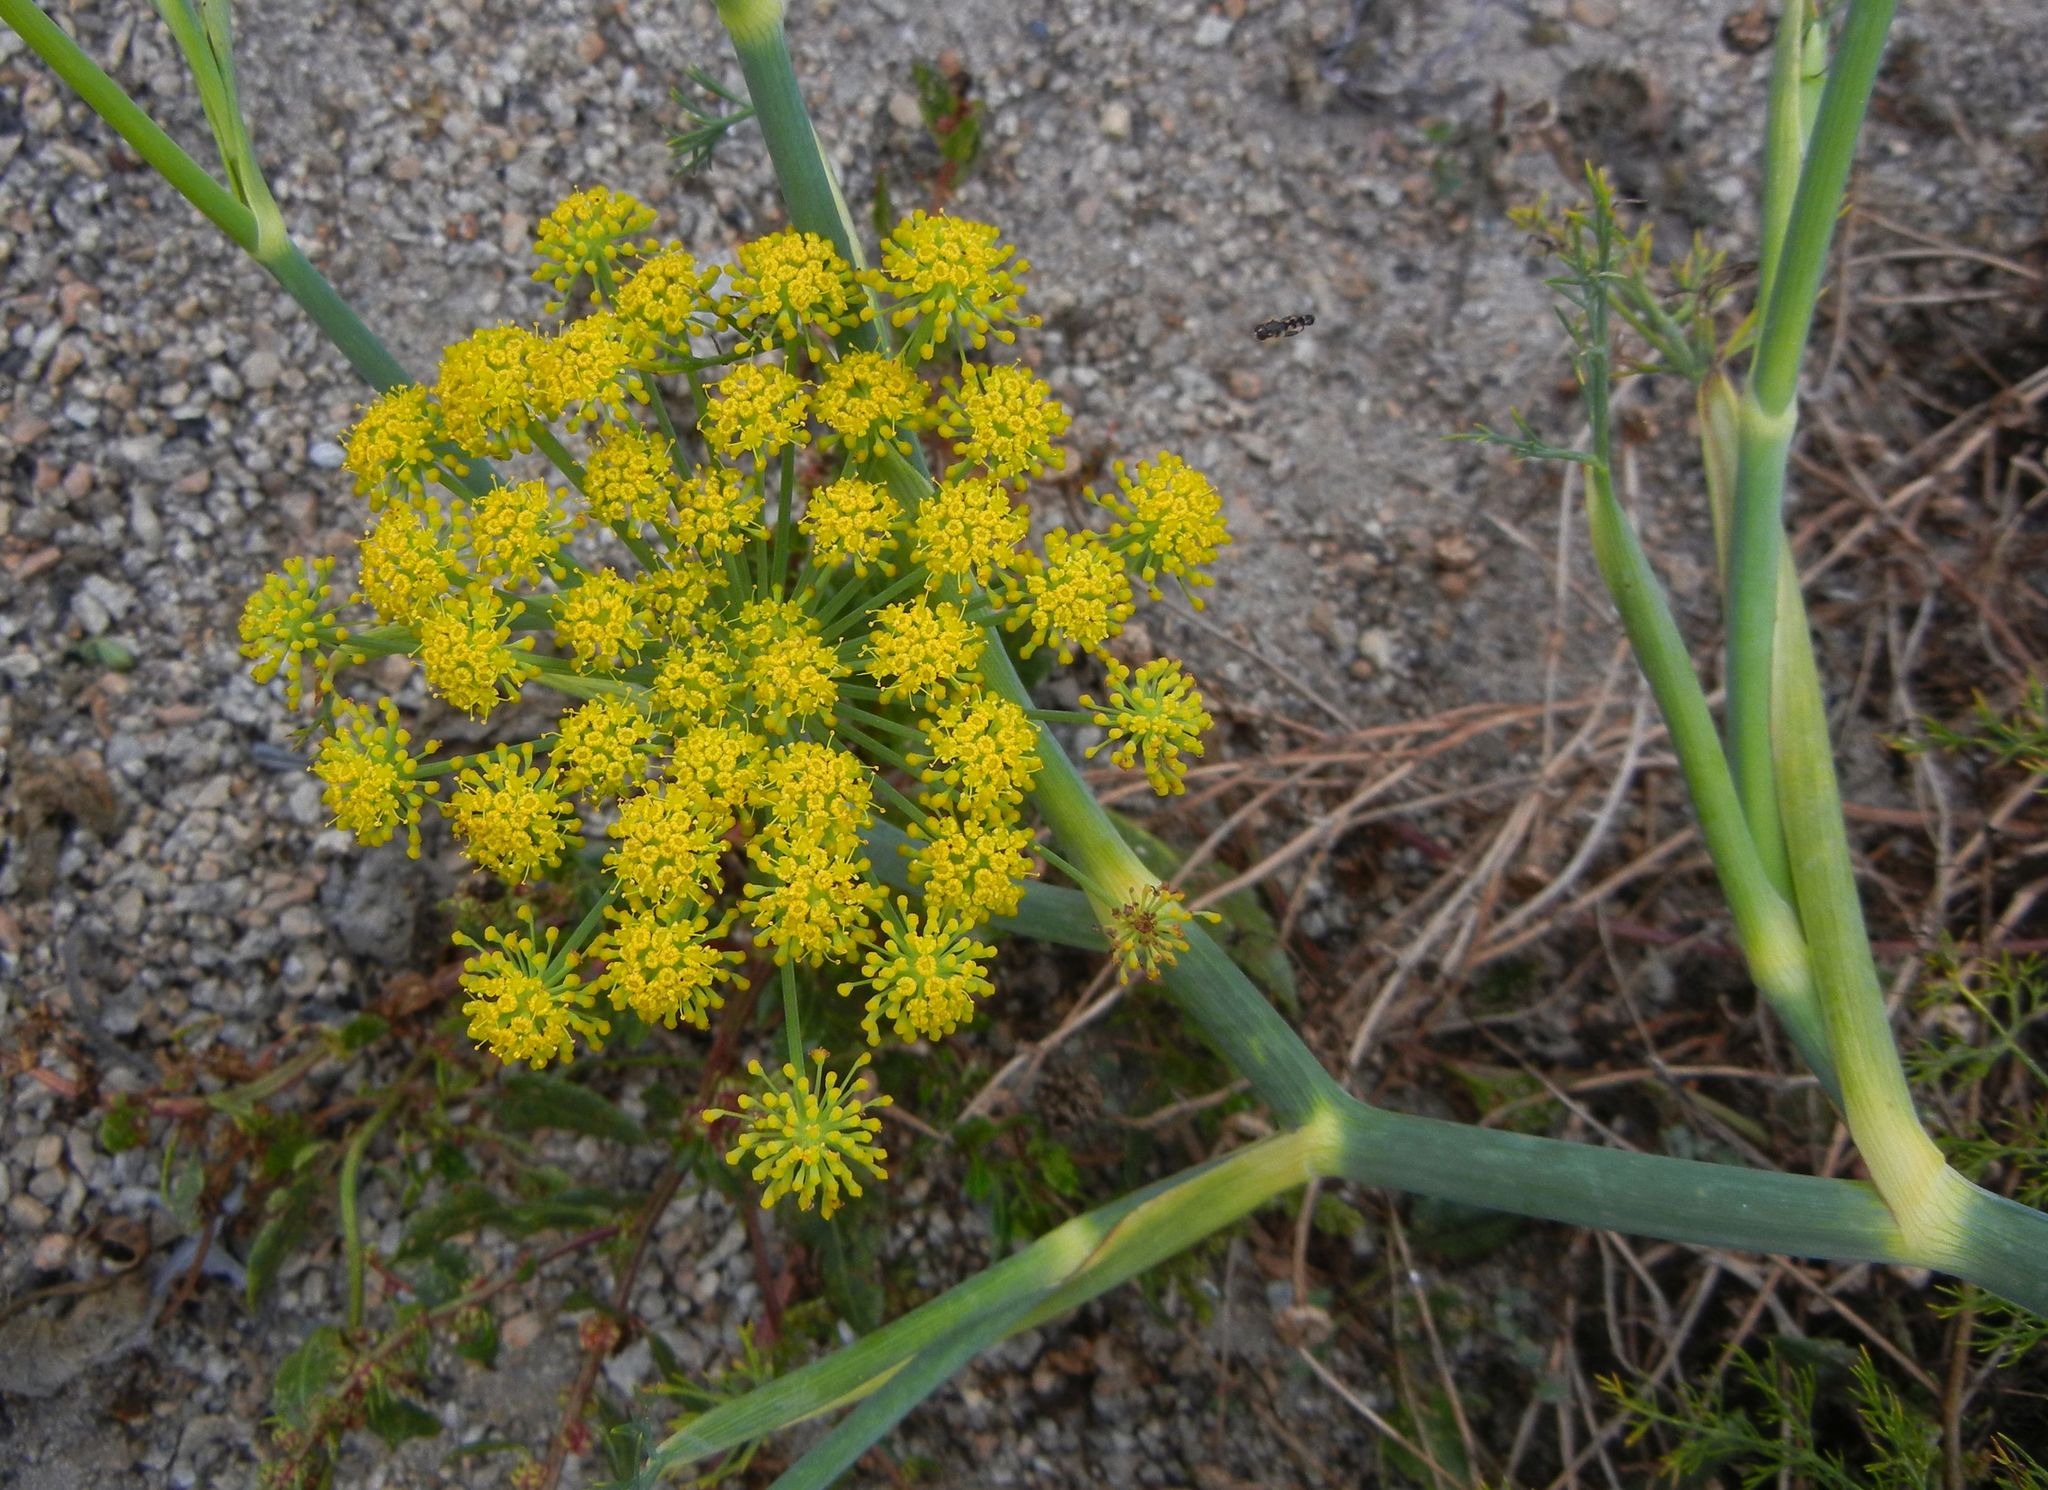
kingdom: Plantae
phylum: Tracheophyta
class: Magnoliopsida
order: Apiales
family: Apiaceae
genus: Foeniculum
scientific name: Foeniculum vulgare
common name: Fennel
